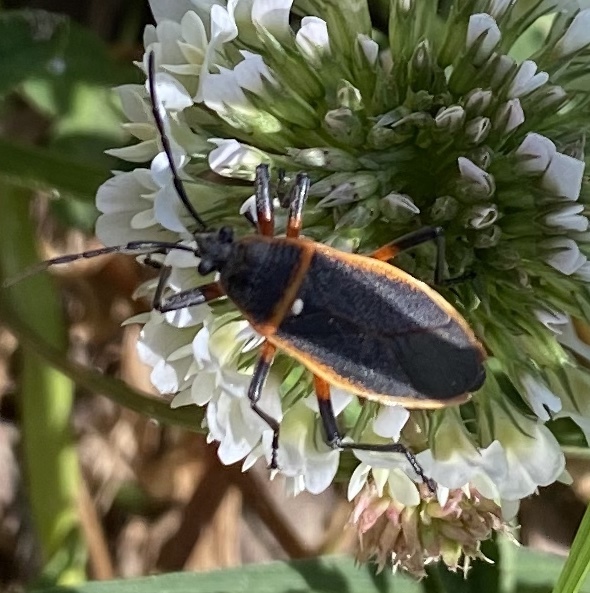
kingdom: Animalia
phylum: Arthropoda
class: Insecta
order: Hemiptera
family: Largidae
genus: Largus
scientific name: Largus succinctus
